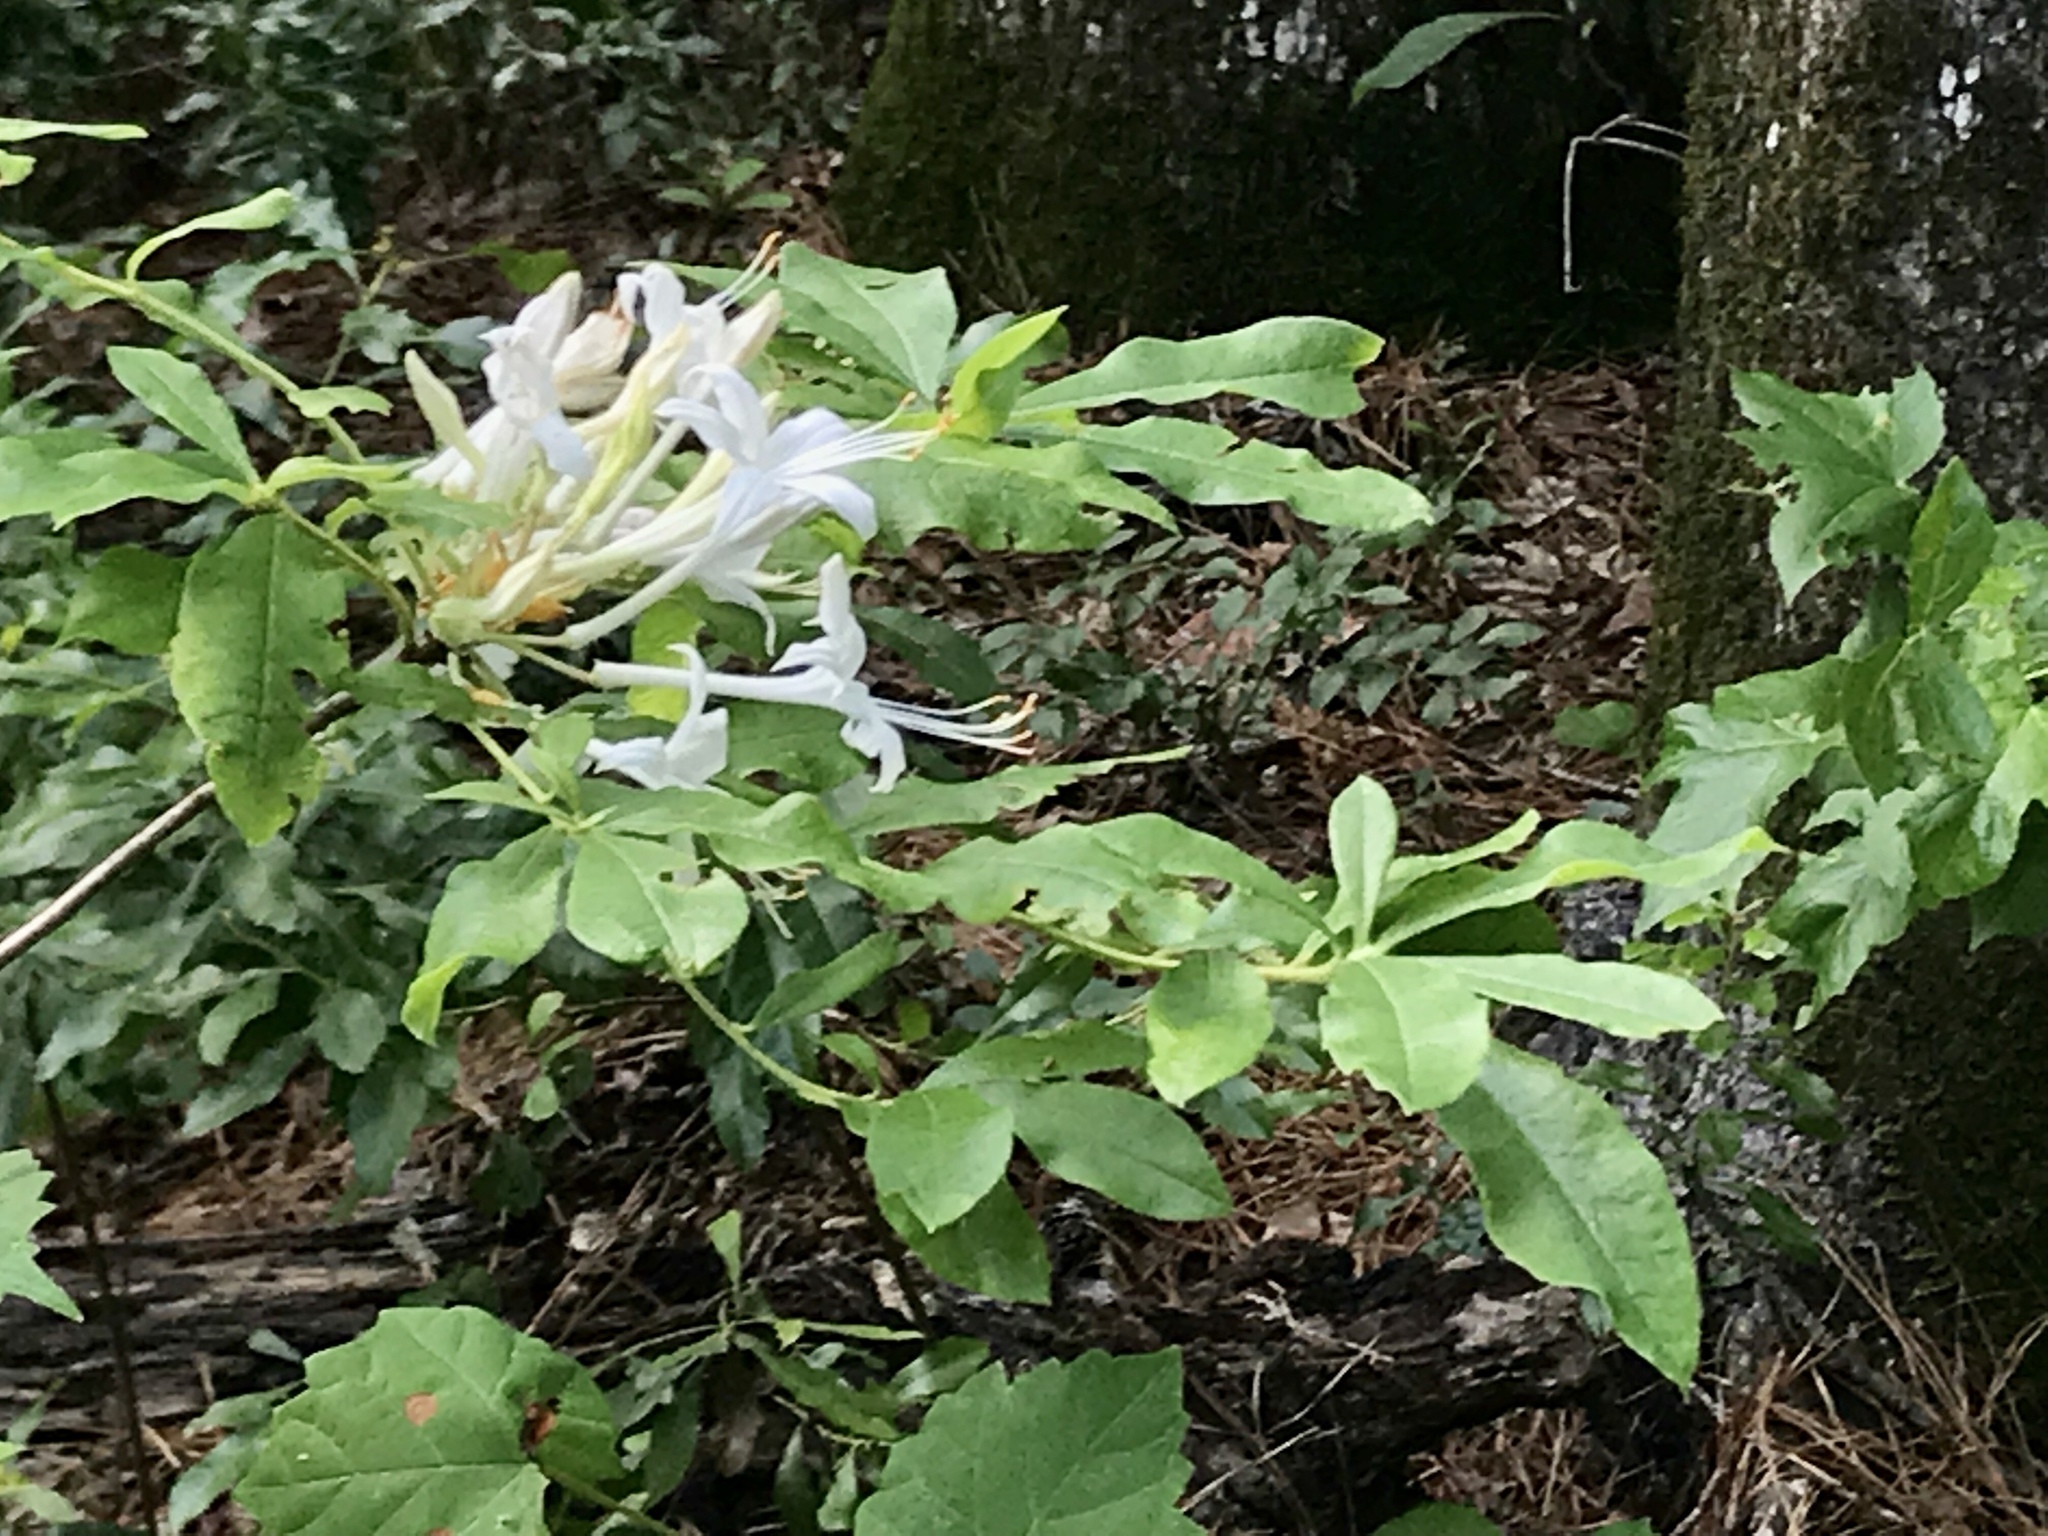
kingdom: Plantae
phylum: Tracheophyta
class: Magnoliopsida
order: Ericales
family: Ericaceae
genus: Rhododendron
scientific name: Rhododendron viscosum
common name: Clammy azalea
